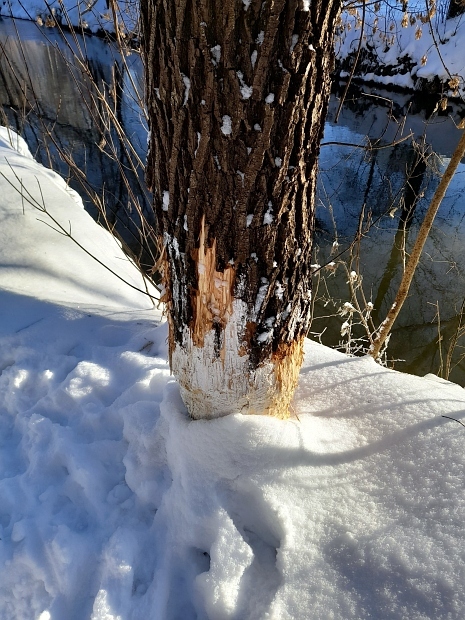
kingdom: Animalia
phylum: Chordata
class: Mammalia
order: Rodentia
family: Castoridae
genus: Castor
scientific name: Castor fiber
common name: Eurasian beaver
